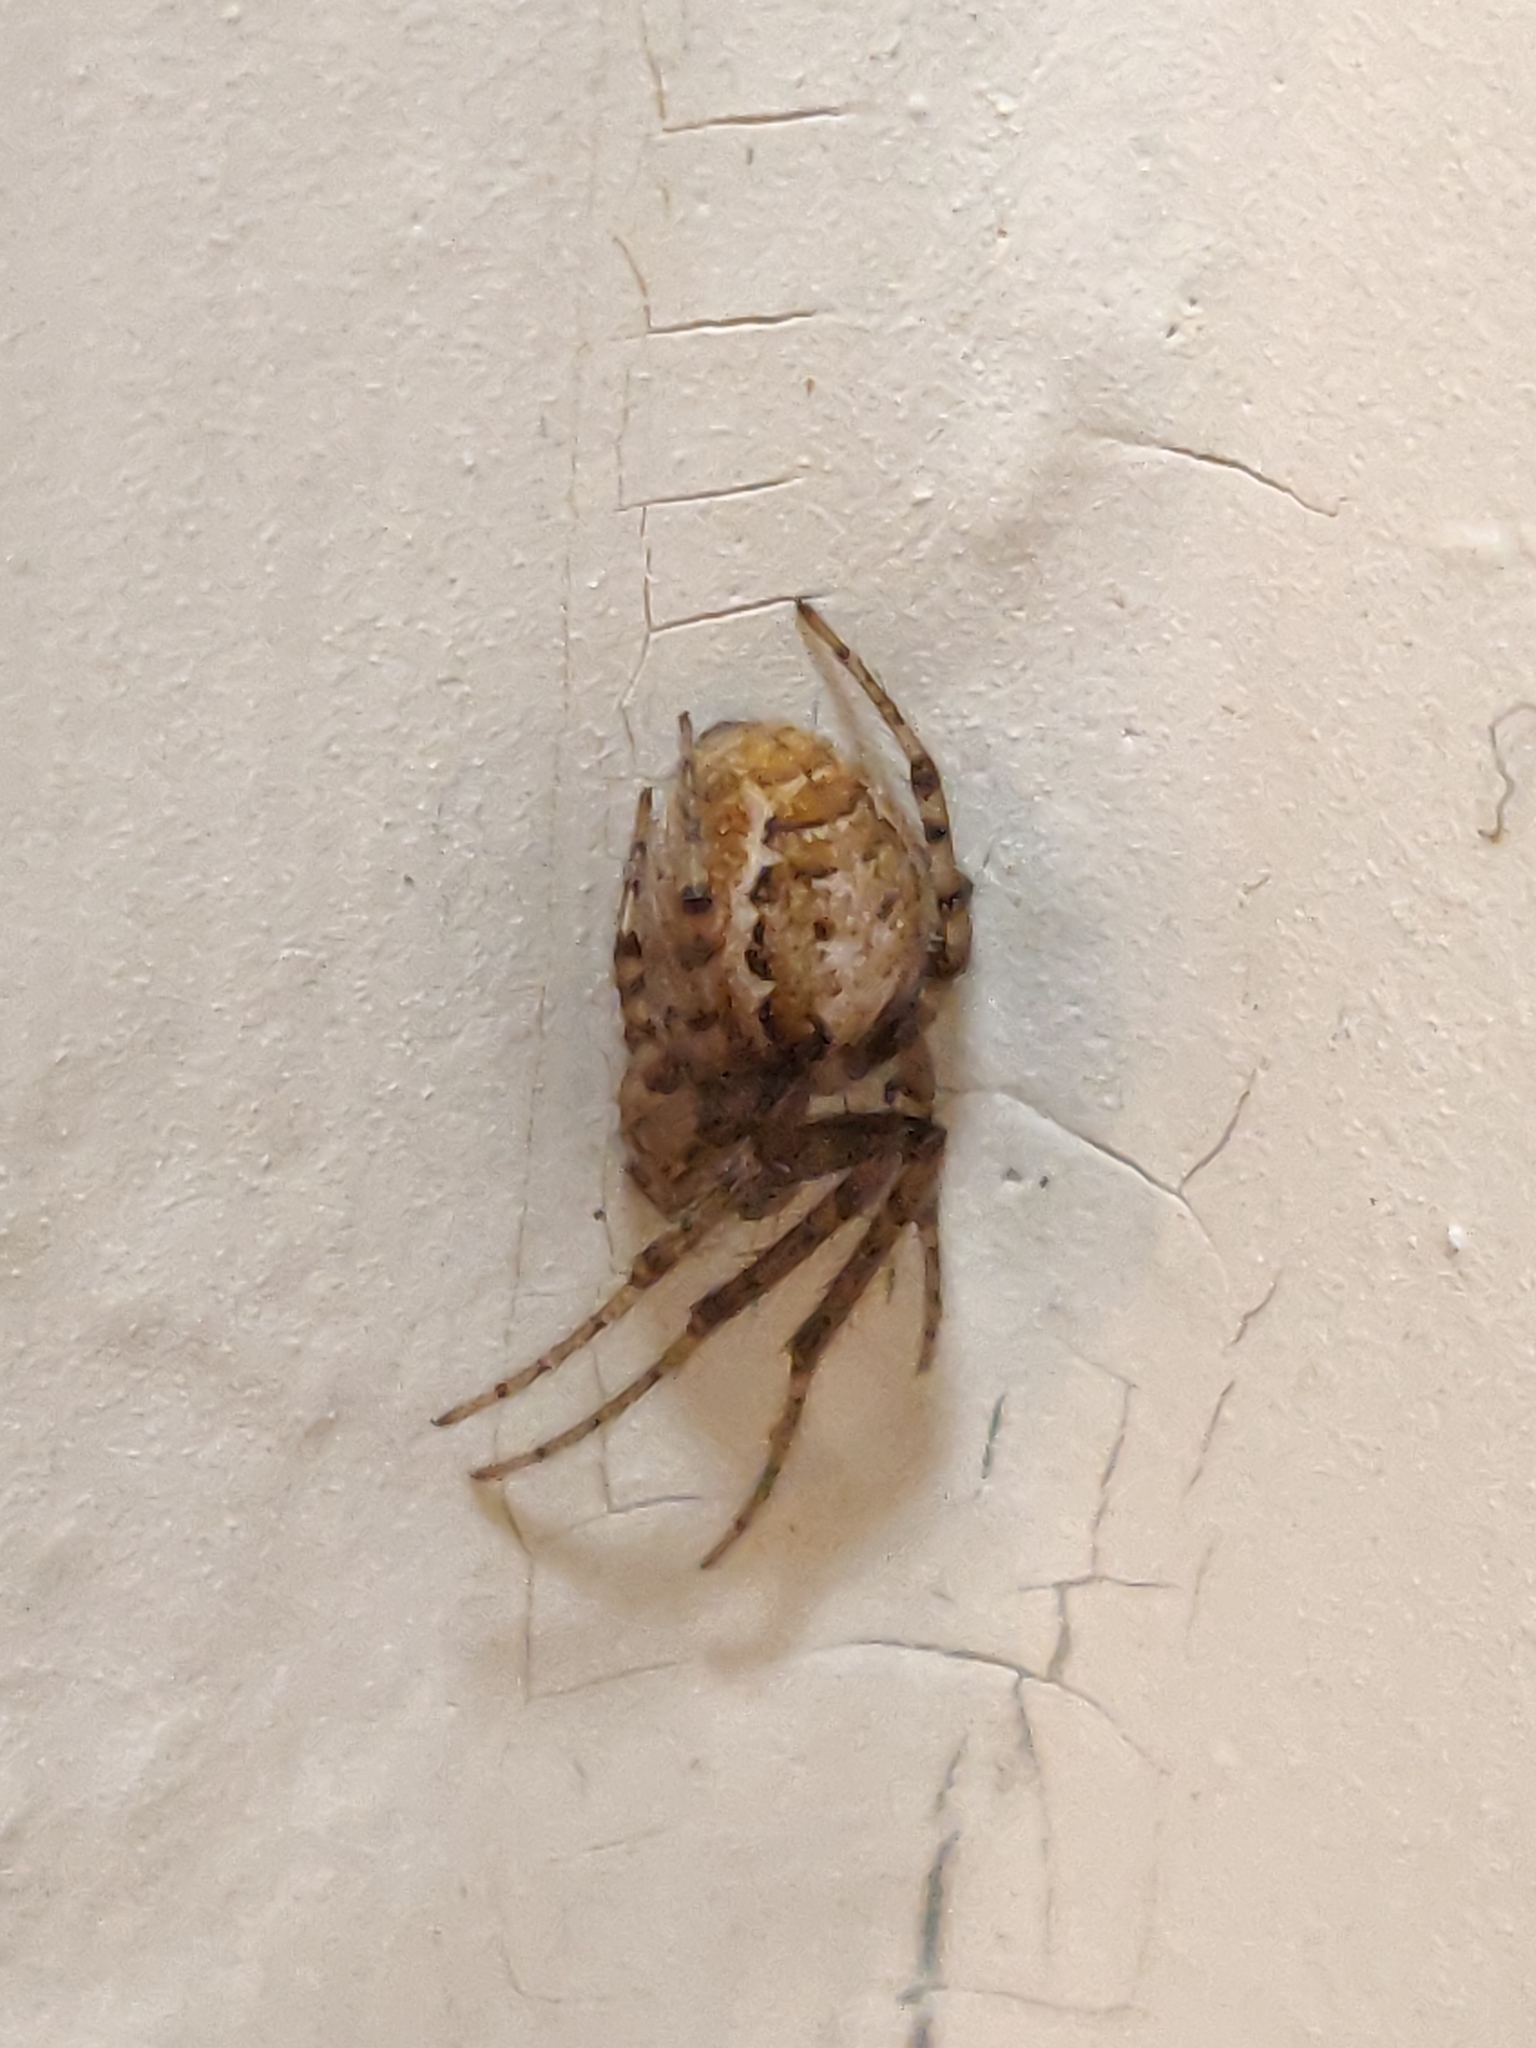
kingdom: Animalia
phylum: Arthropoda
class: Arachnida
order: Araneae
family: Araneidae
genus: Zygiella
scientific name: Zygiella x-notata
